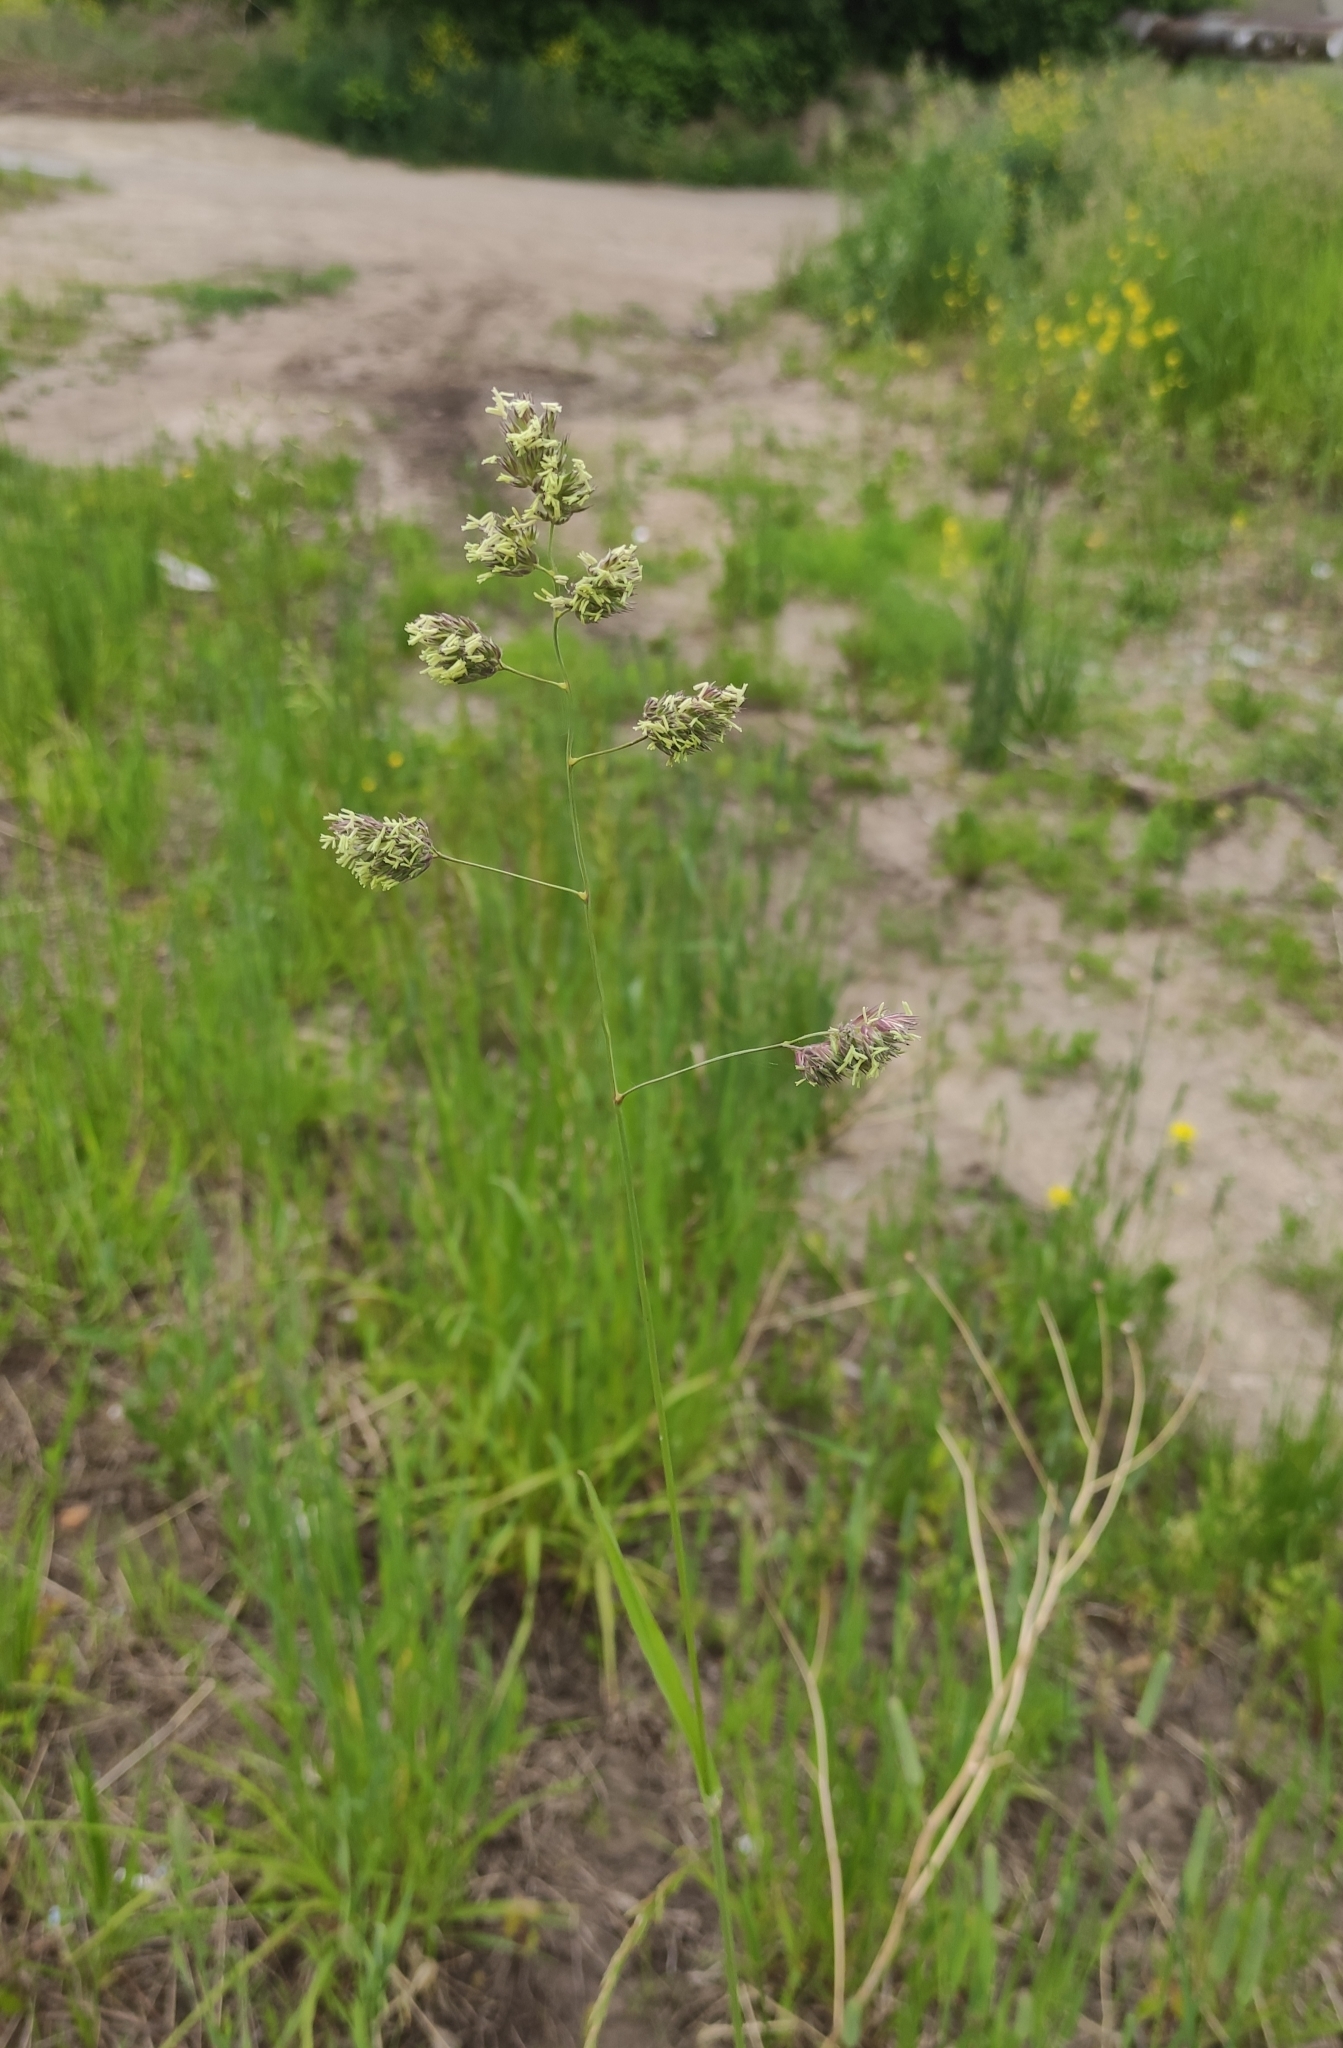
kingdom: Plantae
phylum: Tracheophyta
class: Liliopsida
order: Poales
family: Poaceae
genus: Dactylis
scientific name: Dactylis glomerata
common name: Orchardgrass
